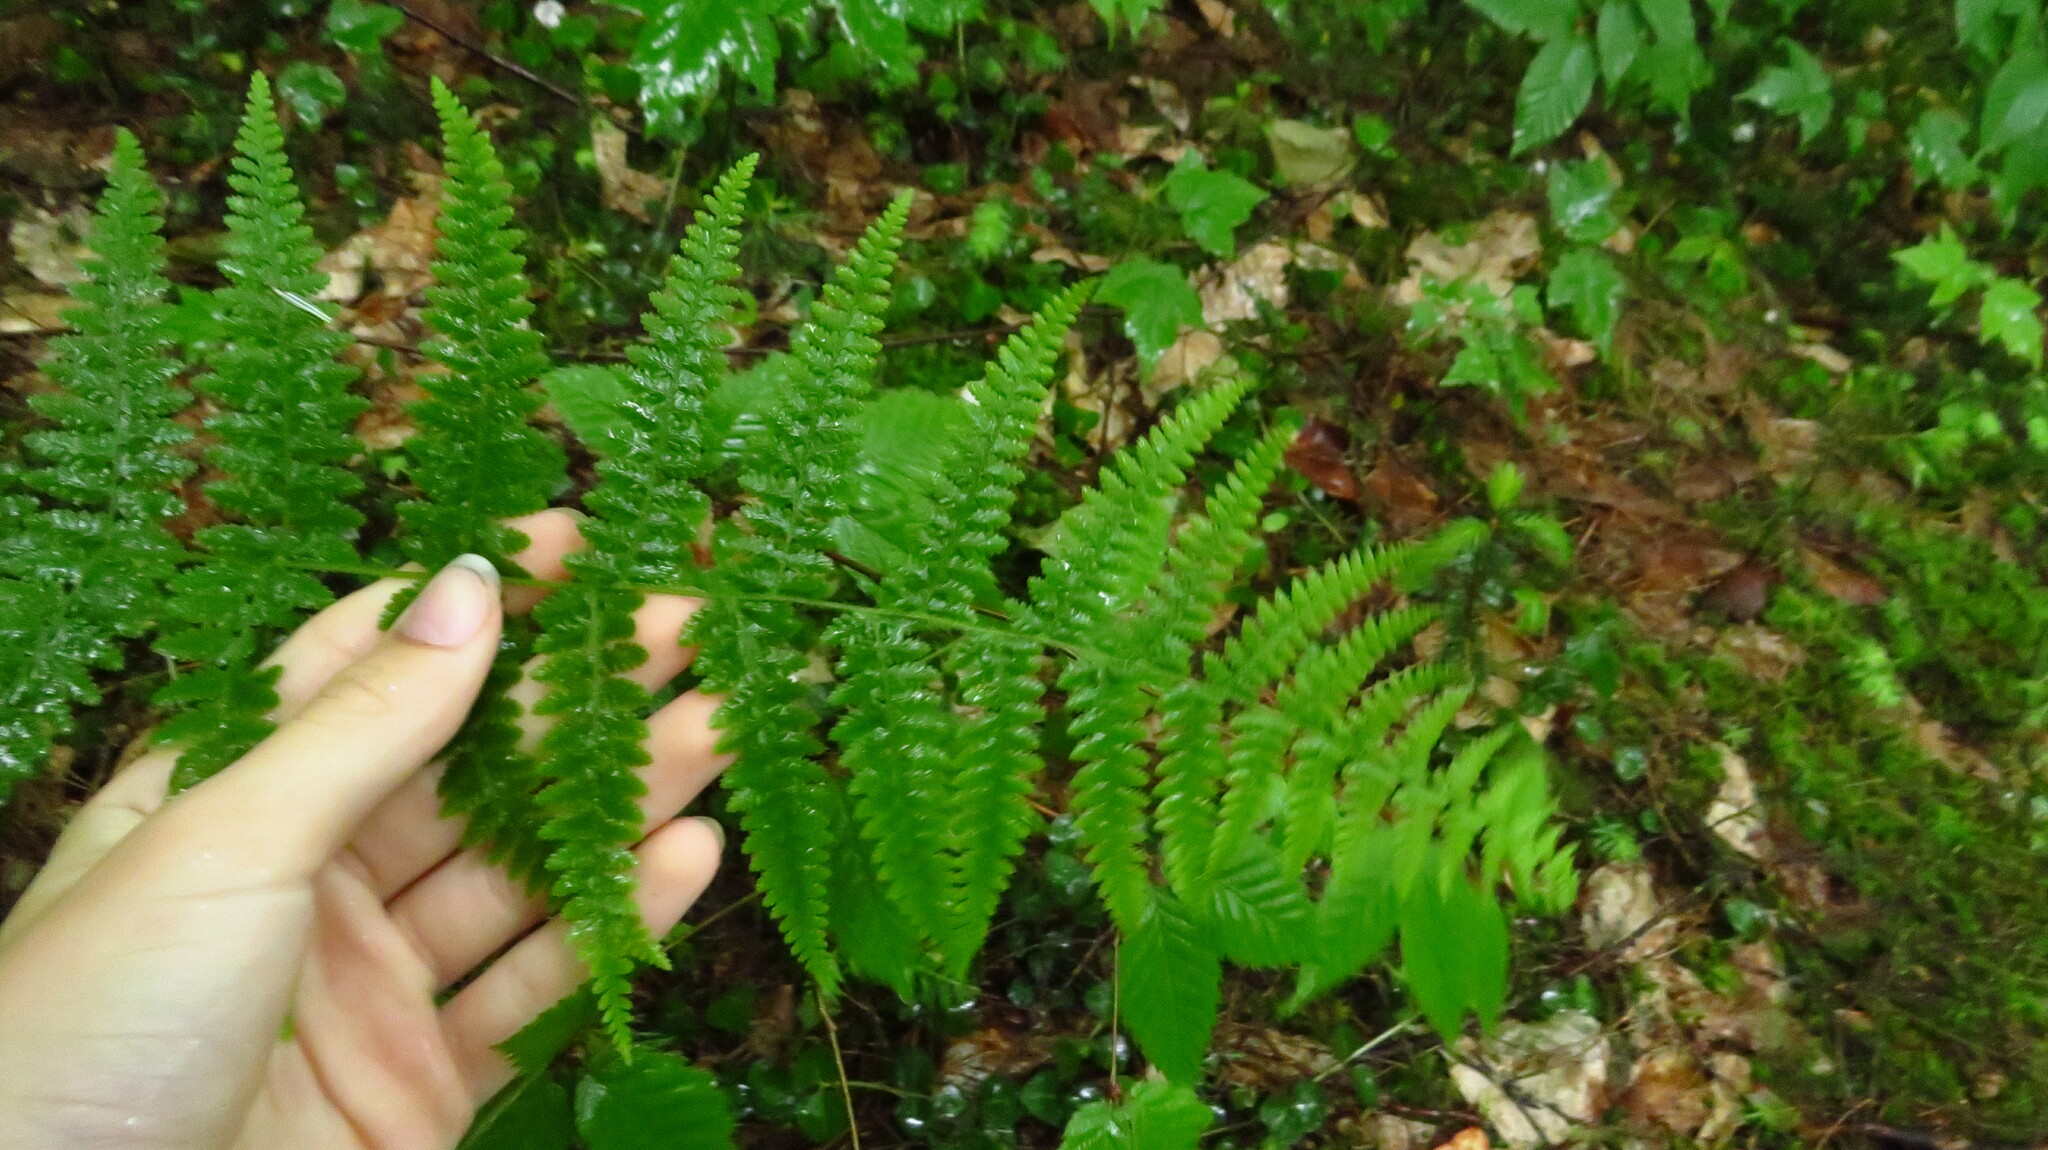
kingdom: Plantae
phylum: Tracheophyta
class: Polypodiopsida
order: Polypodiales
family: Dennstaedtiaceae
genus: Sitobolium
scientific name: Sitobolium punctilobum
